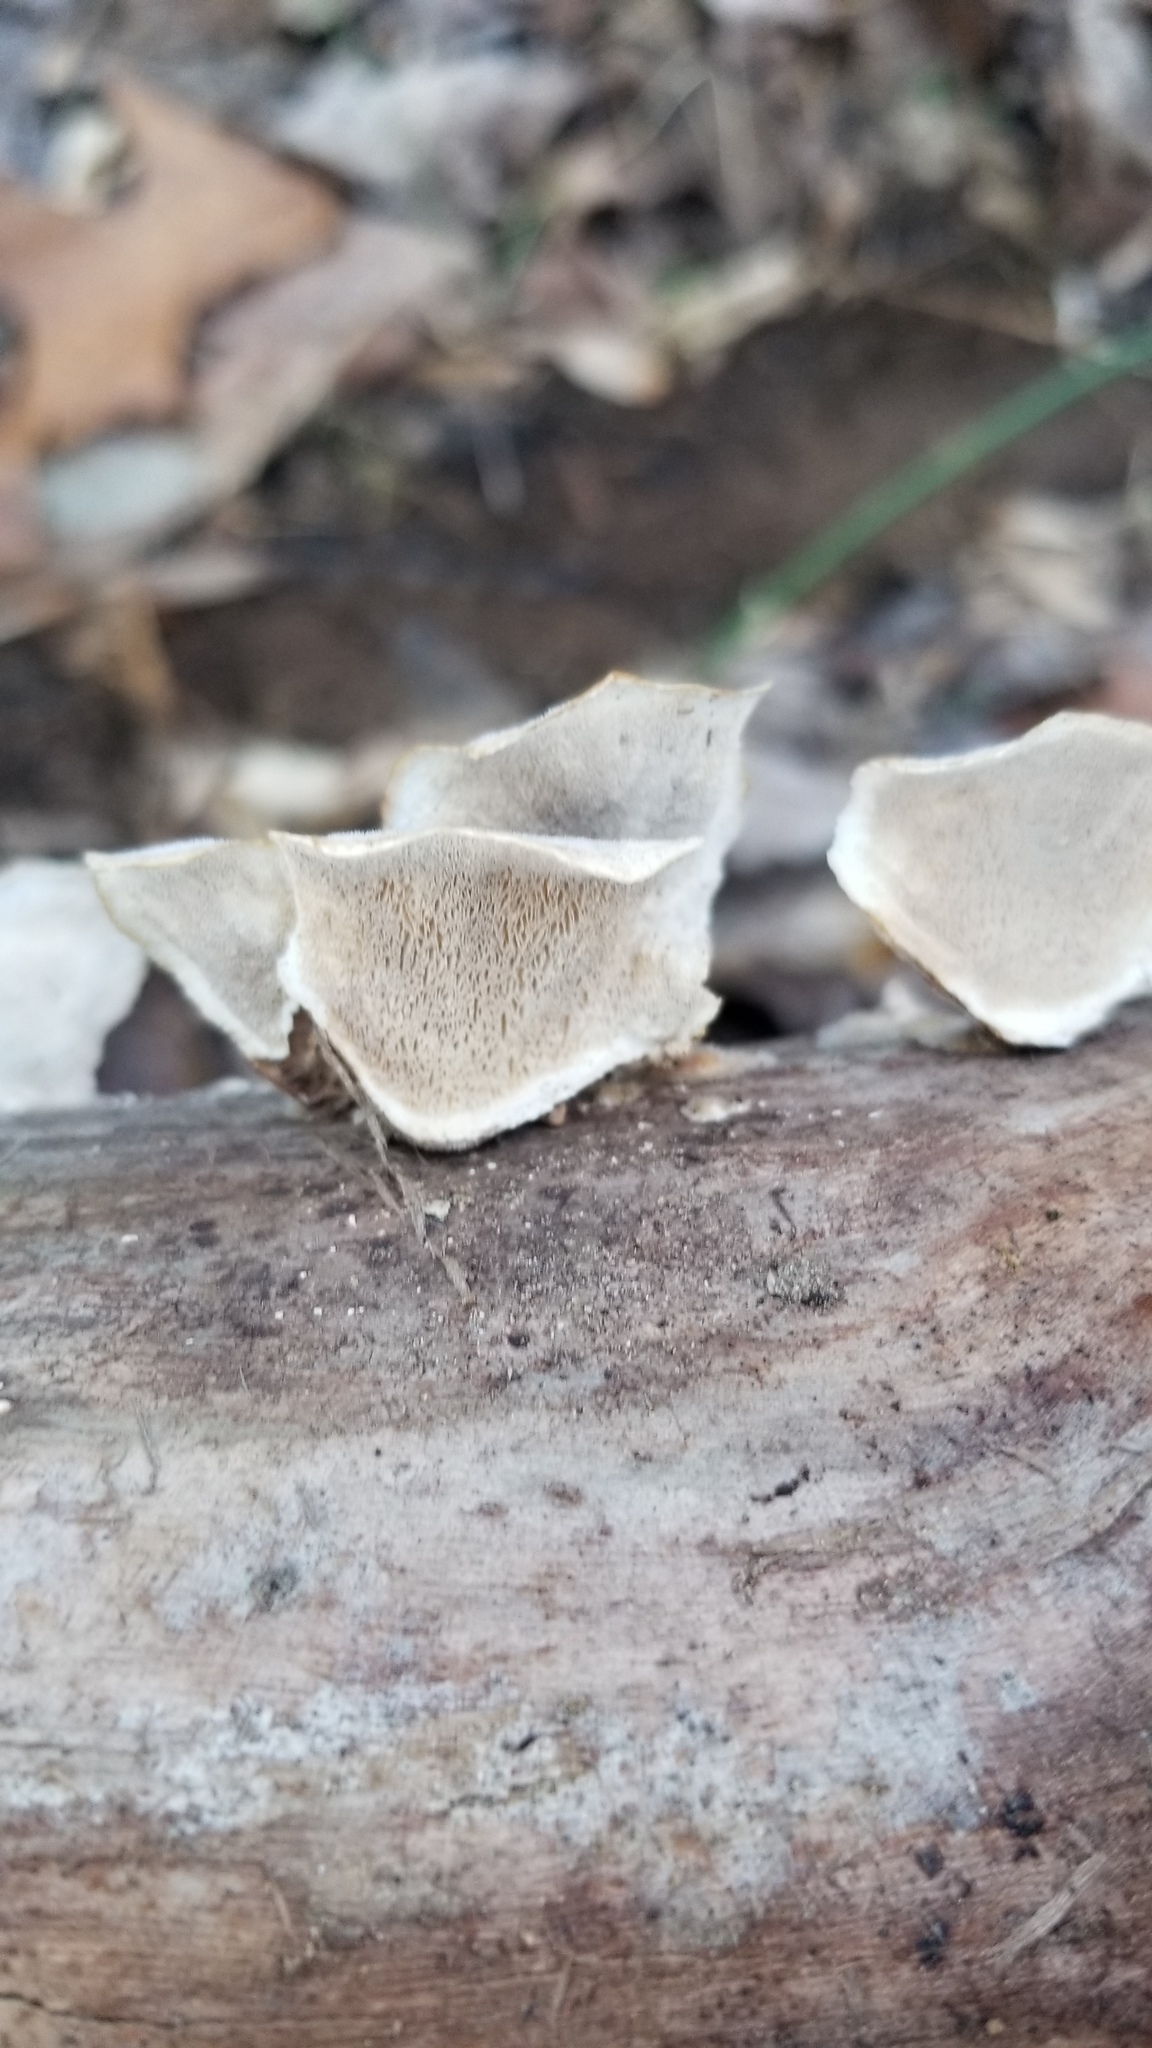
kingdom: Fungi
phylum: Basidiomycota
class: Agaricomycetes
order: Polyporales
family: Polyporaceae
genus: Trametes
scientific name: Trametes versicolor
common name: Turkeytail
